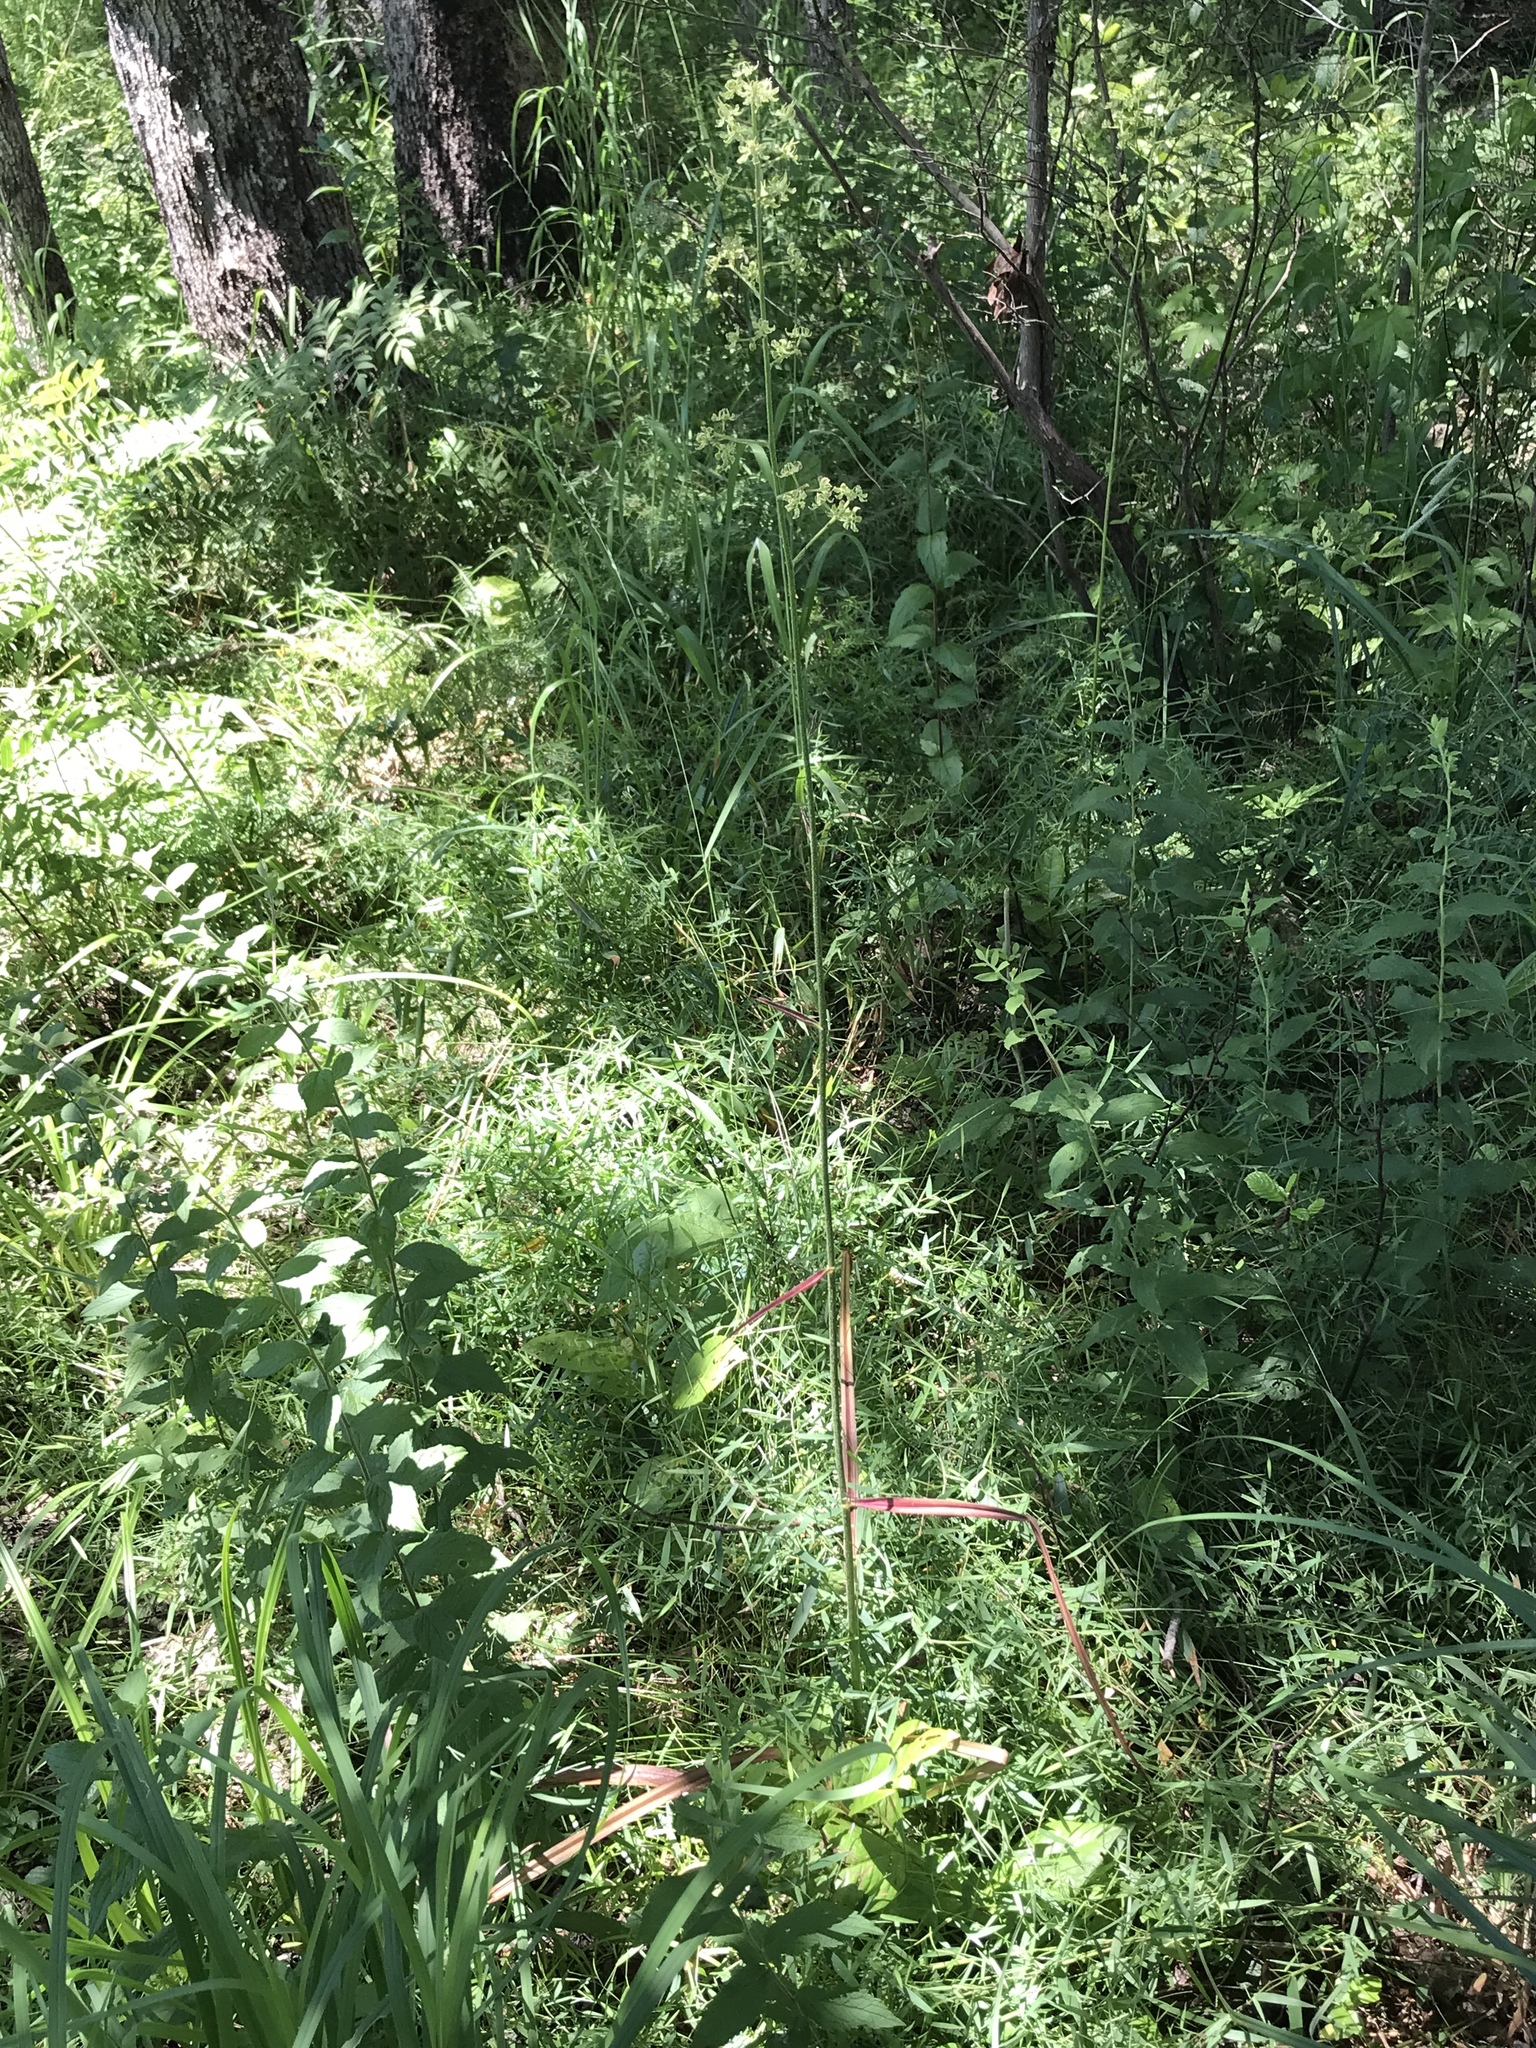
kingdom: Plantae
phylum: Tracheophyta
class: Liliopsida
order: Liliales
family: Melanthiaceae
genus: Melanthium
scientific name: Melanthium virginicum
